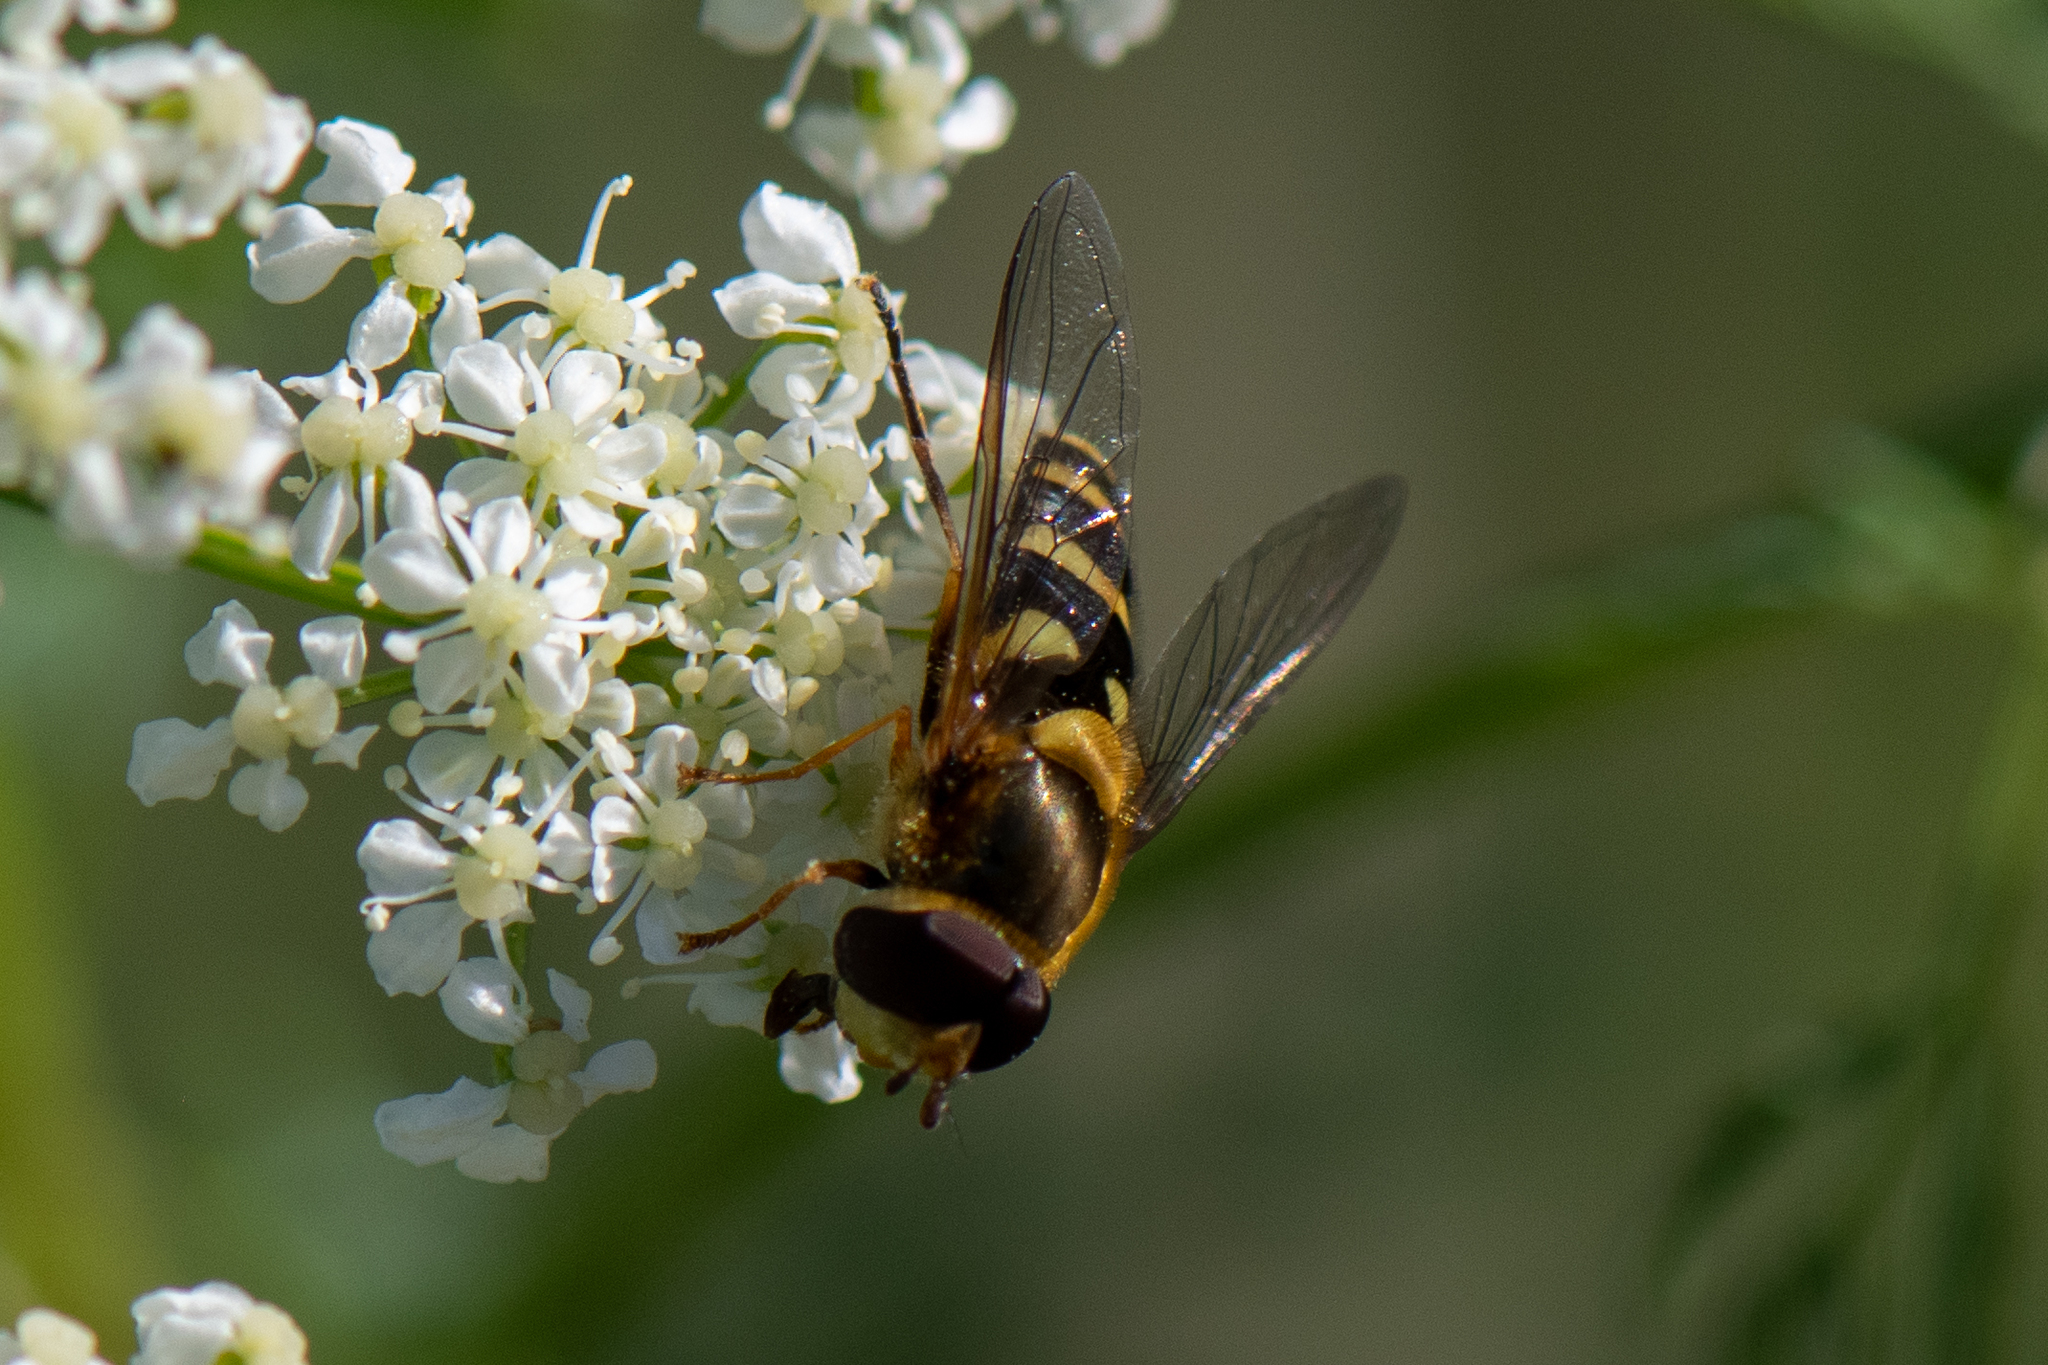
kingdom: Animalia
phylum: Arthropoda
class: Insecta
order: Diptera
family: Syrphidae
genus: Syrphus
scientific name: Syrphus opinator
